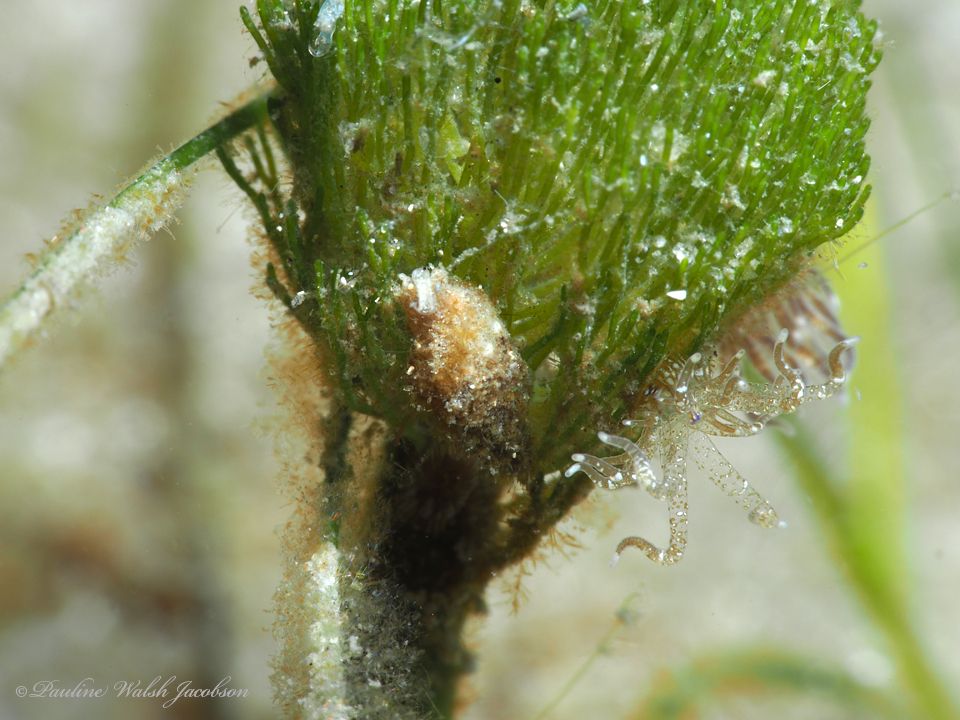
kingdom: Animalia
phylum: Cnidaria
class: Anthozoa
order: Actiniaria
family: Boloceroididae
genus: Bunodeopsis
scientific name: Bunodeopsis globulifera
